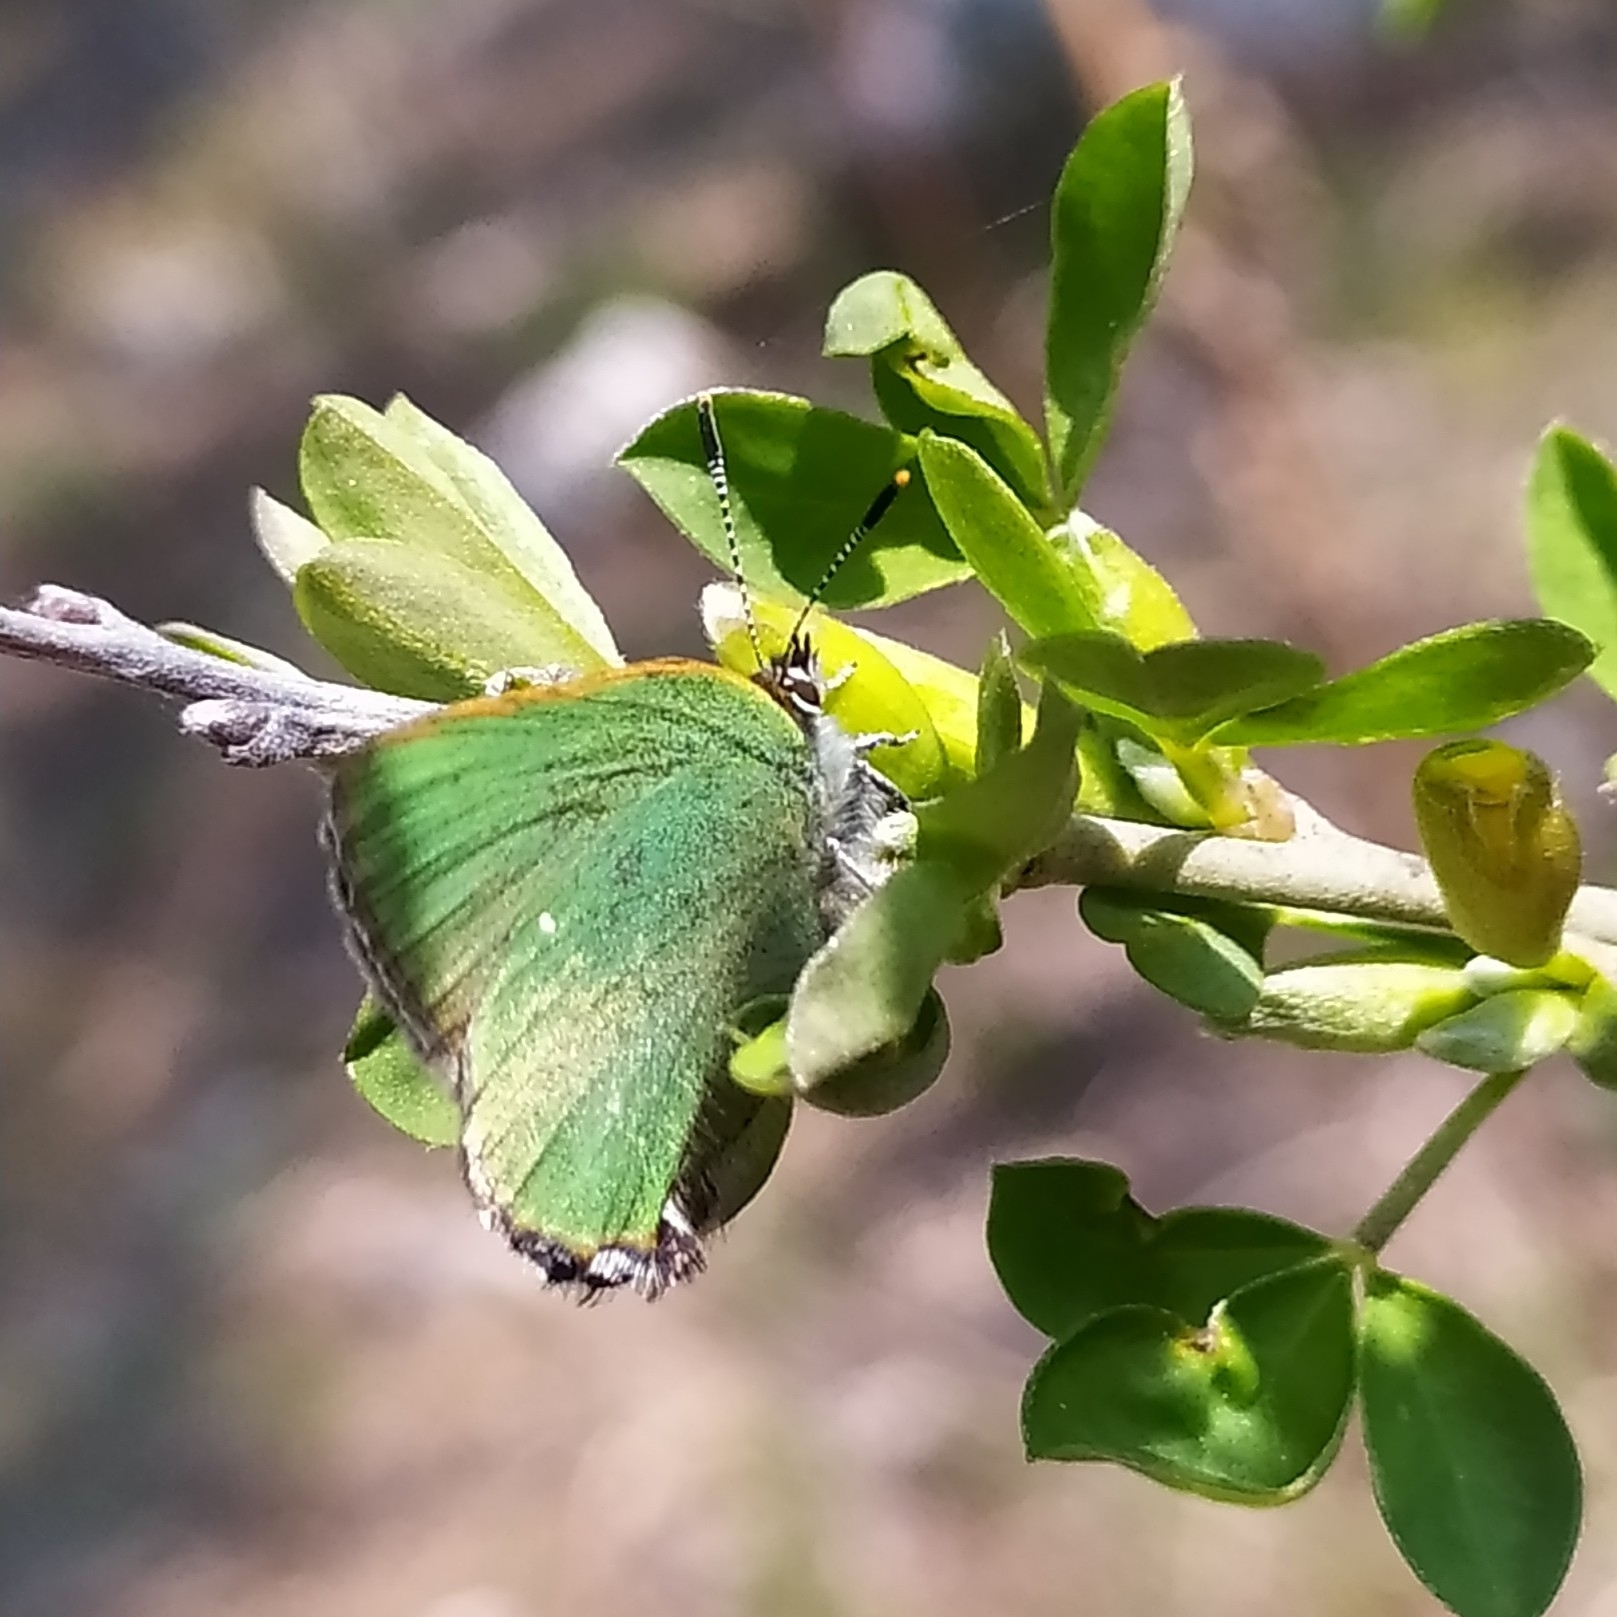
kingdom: Animalia
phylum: Arthropoda
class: Insecta
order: Lepidoptera
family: Lycaenidae
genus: Callophrys
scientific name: Callophrys rubi
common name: Green hairstreak
